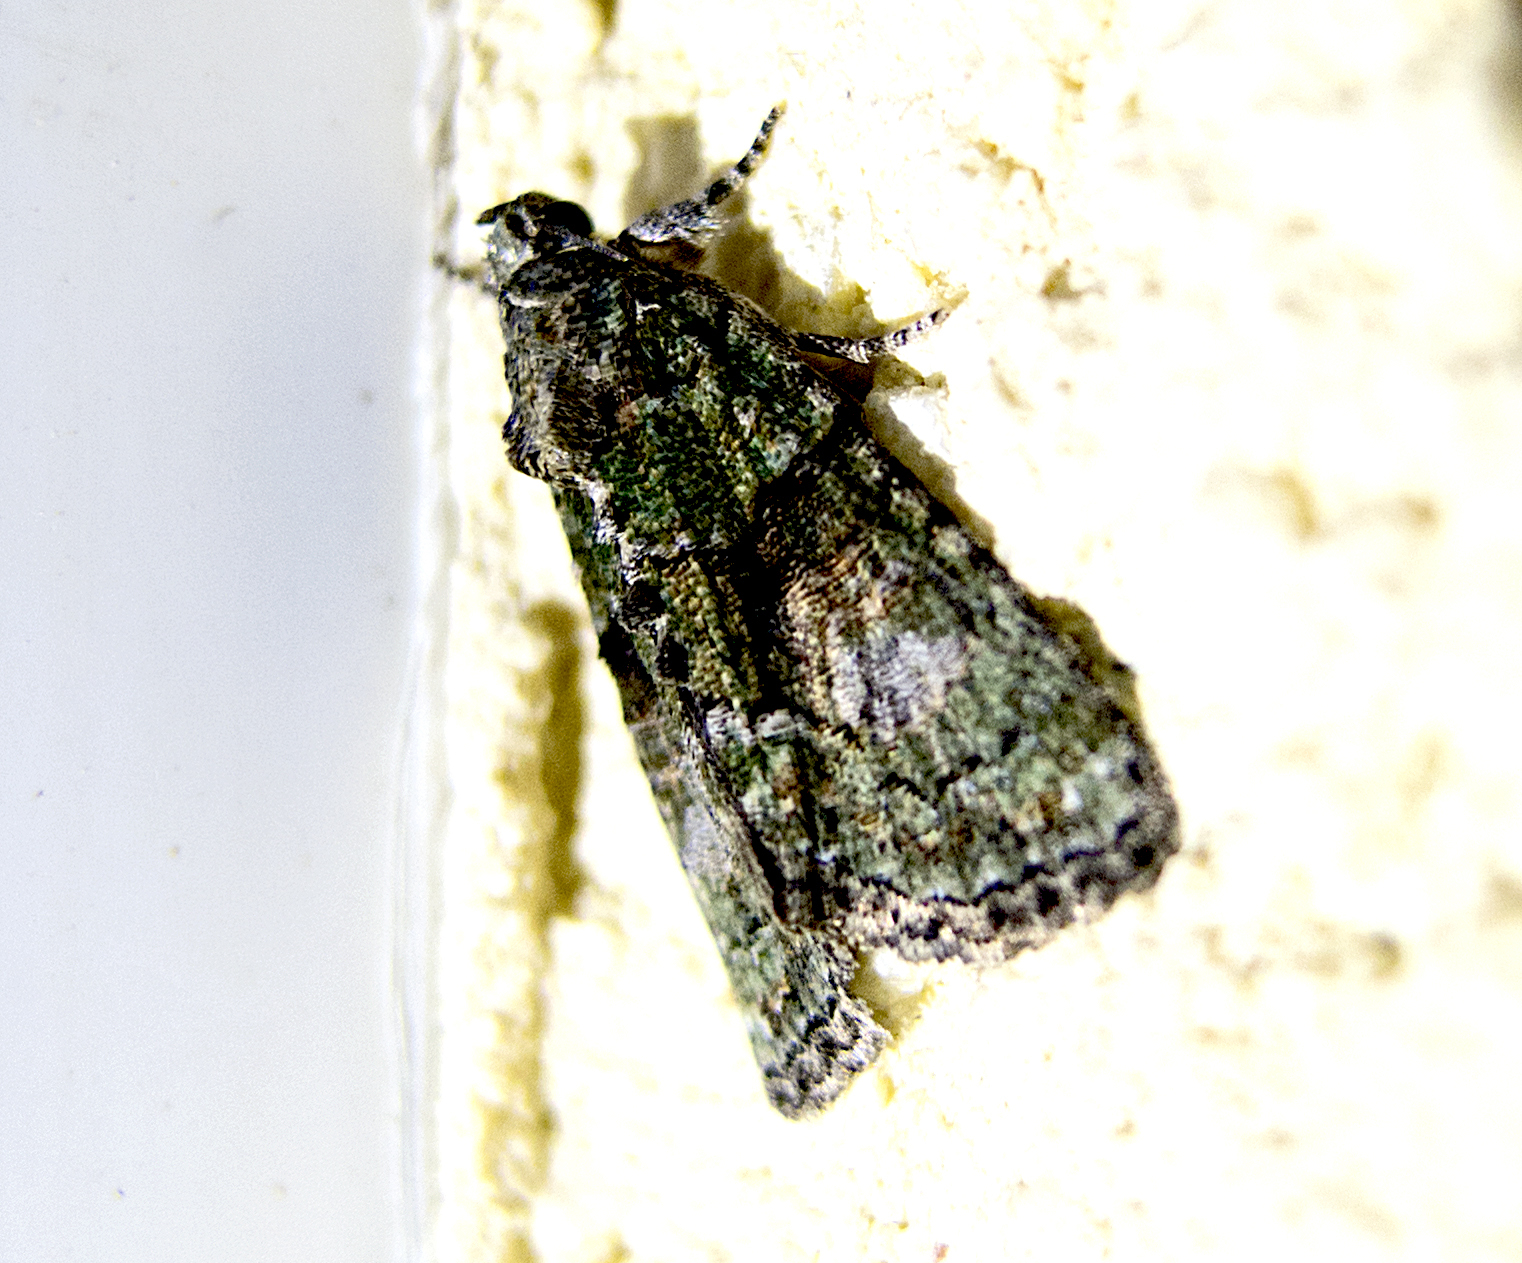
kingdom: Animalia
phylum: Arthropoda
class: Insecta
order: Lepidoptera
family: Noctuidae
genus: Cryphia
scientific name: Cryphia algae
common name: Tree-lichen beauty
